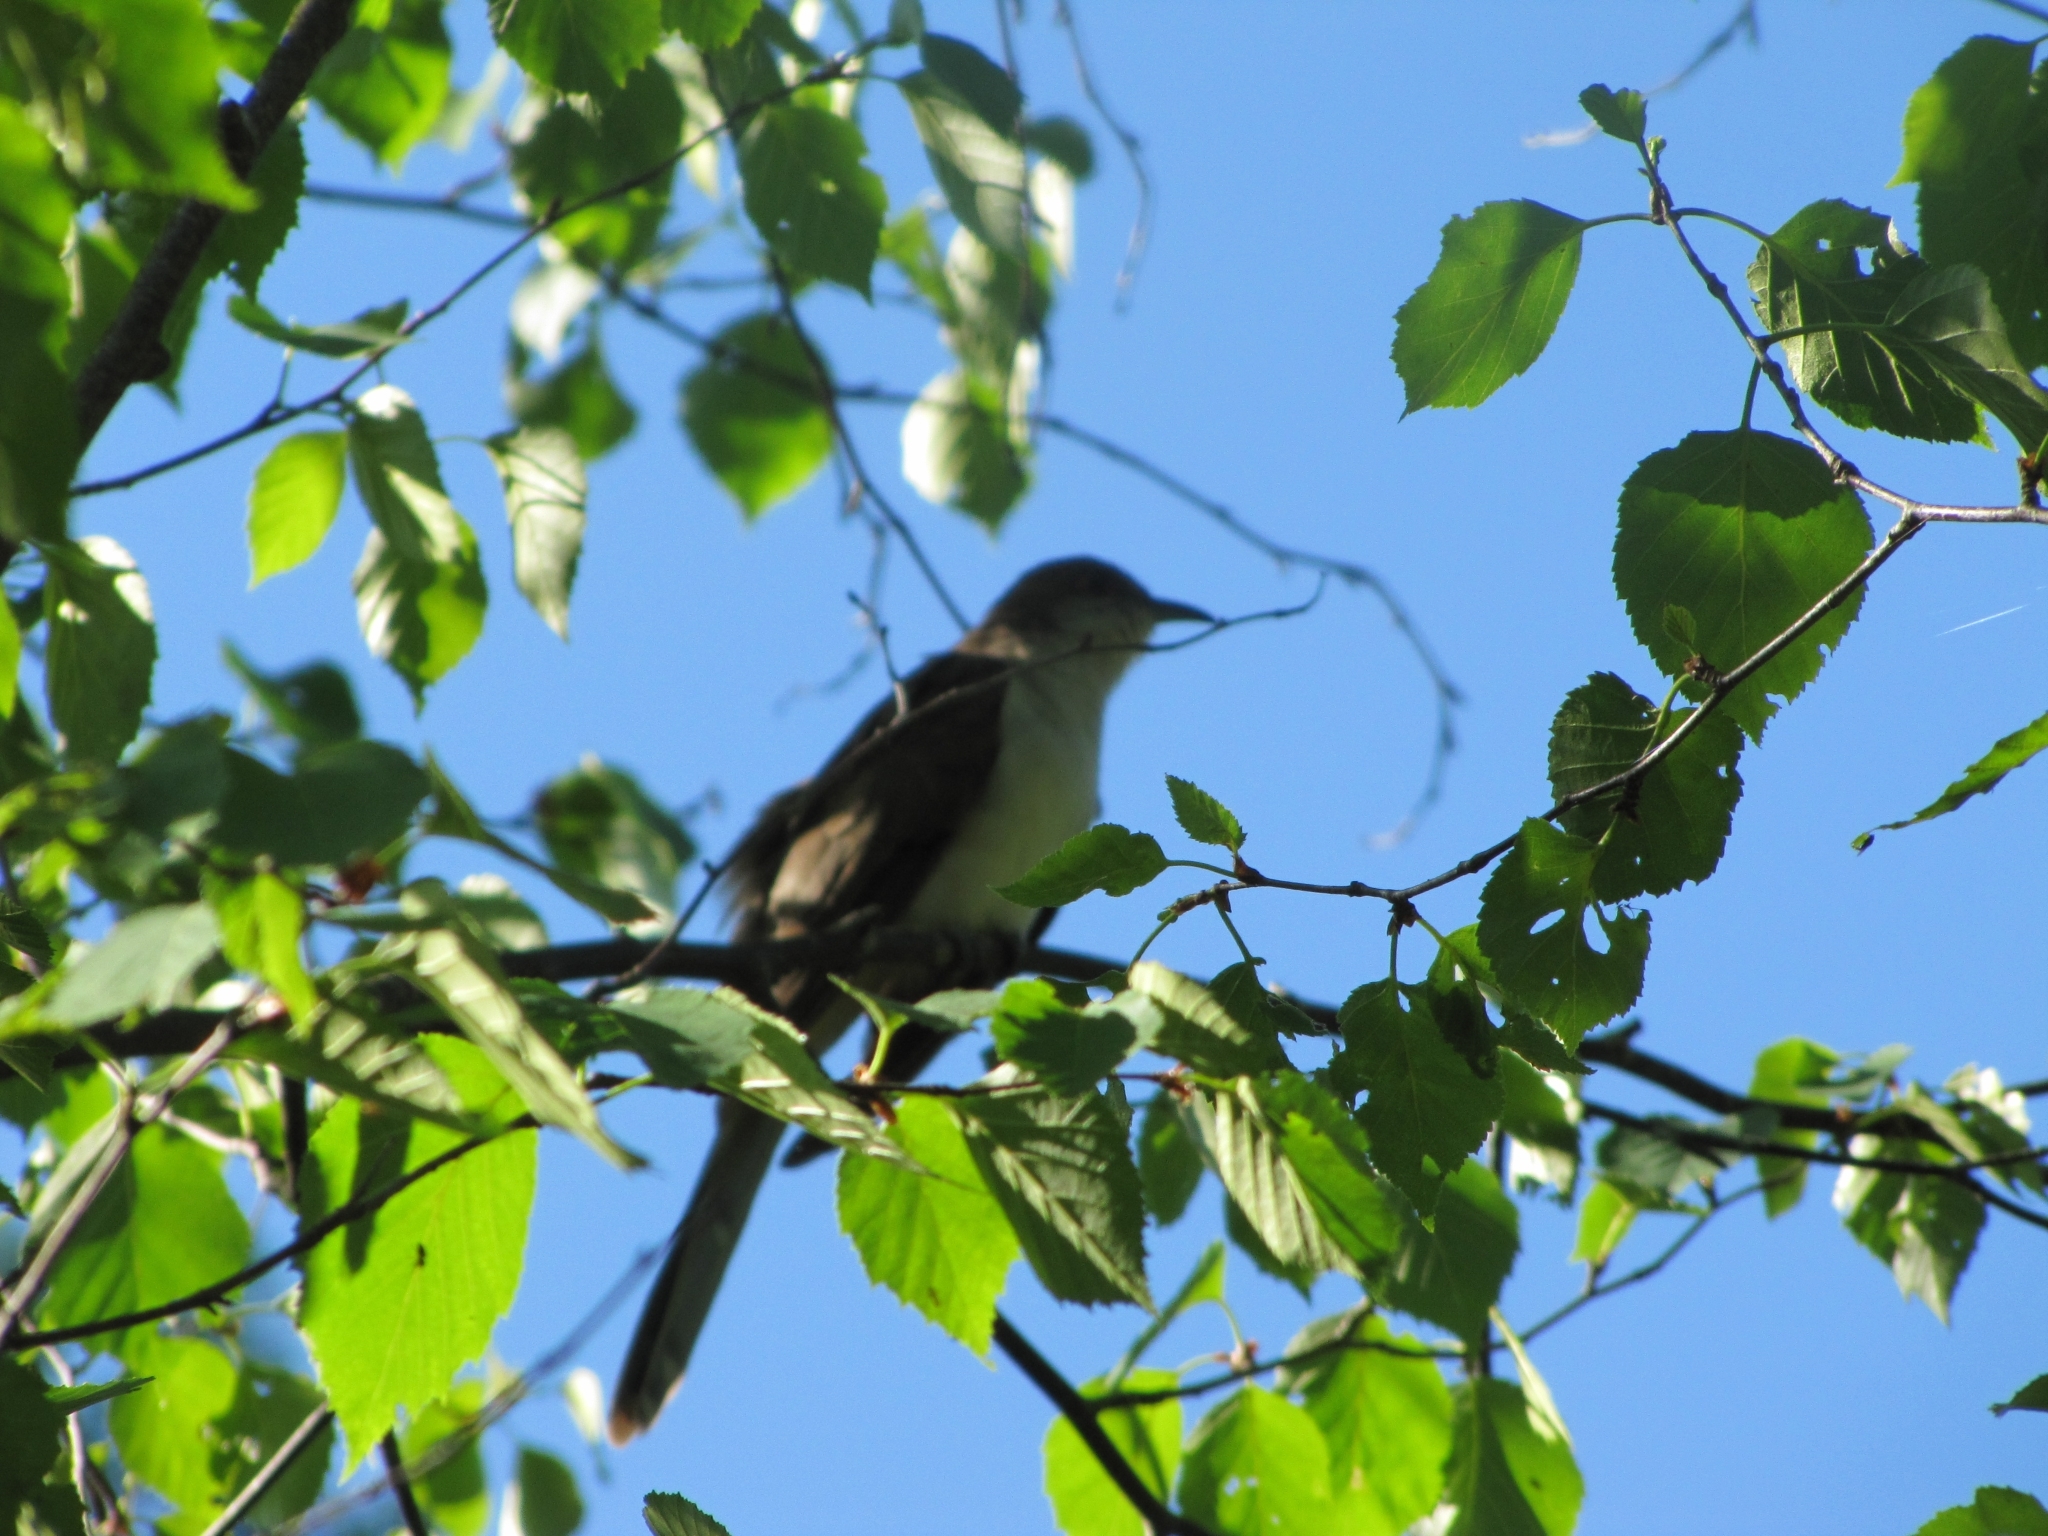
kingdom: Animalia
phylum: Chordata
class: Aves
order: Cuculiformes
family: Cuculidae
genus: Coccyzus
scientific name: Coccyzus erythropthalmus
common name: Black-billed cuckoo
